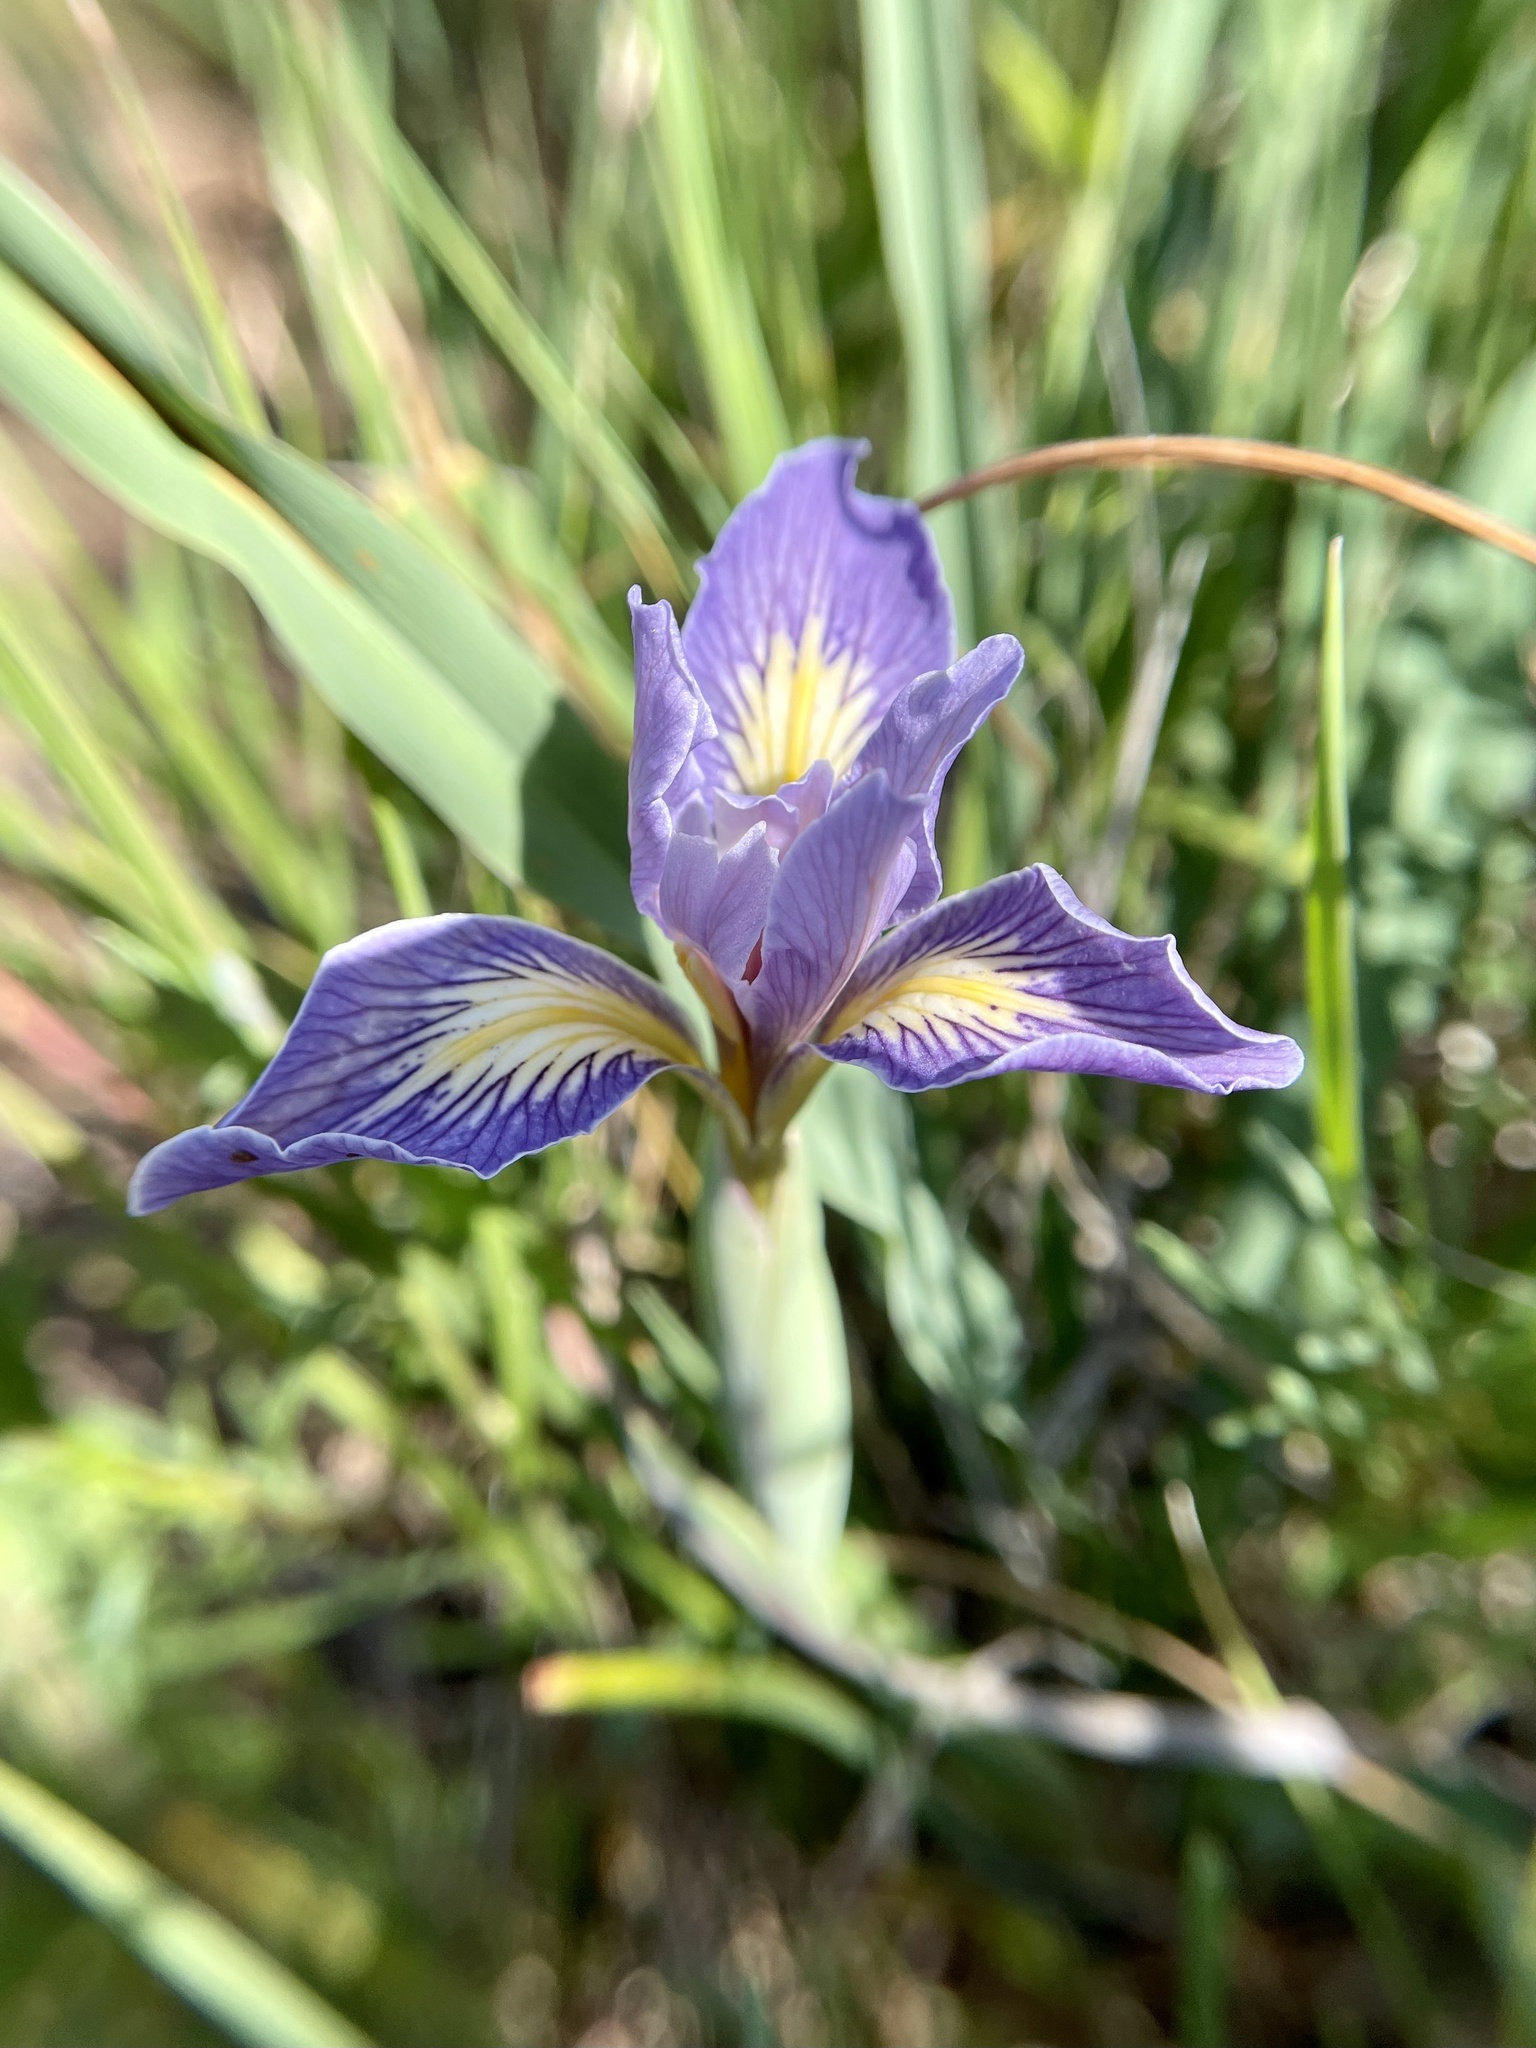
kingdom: Plantae
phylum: Tracheophyta
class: Liliopsida
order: Asparagales
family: Iridaceae
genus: Iris
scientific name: Iris macrosiphon
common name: Ground iris
